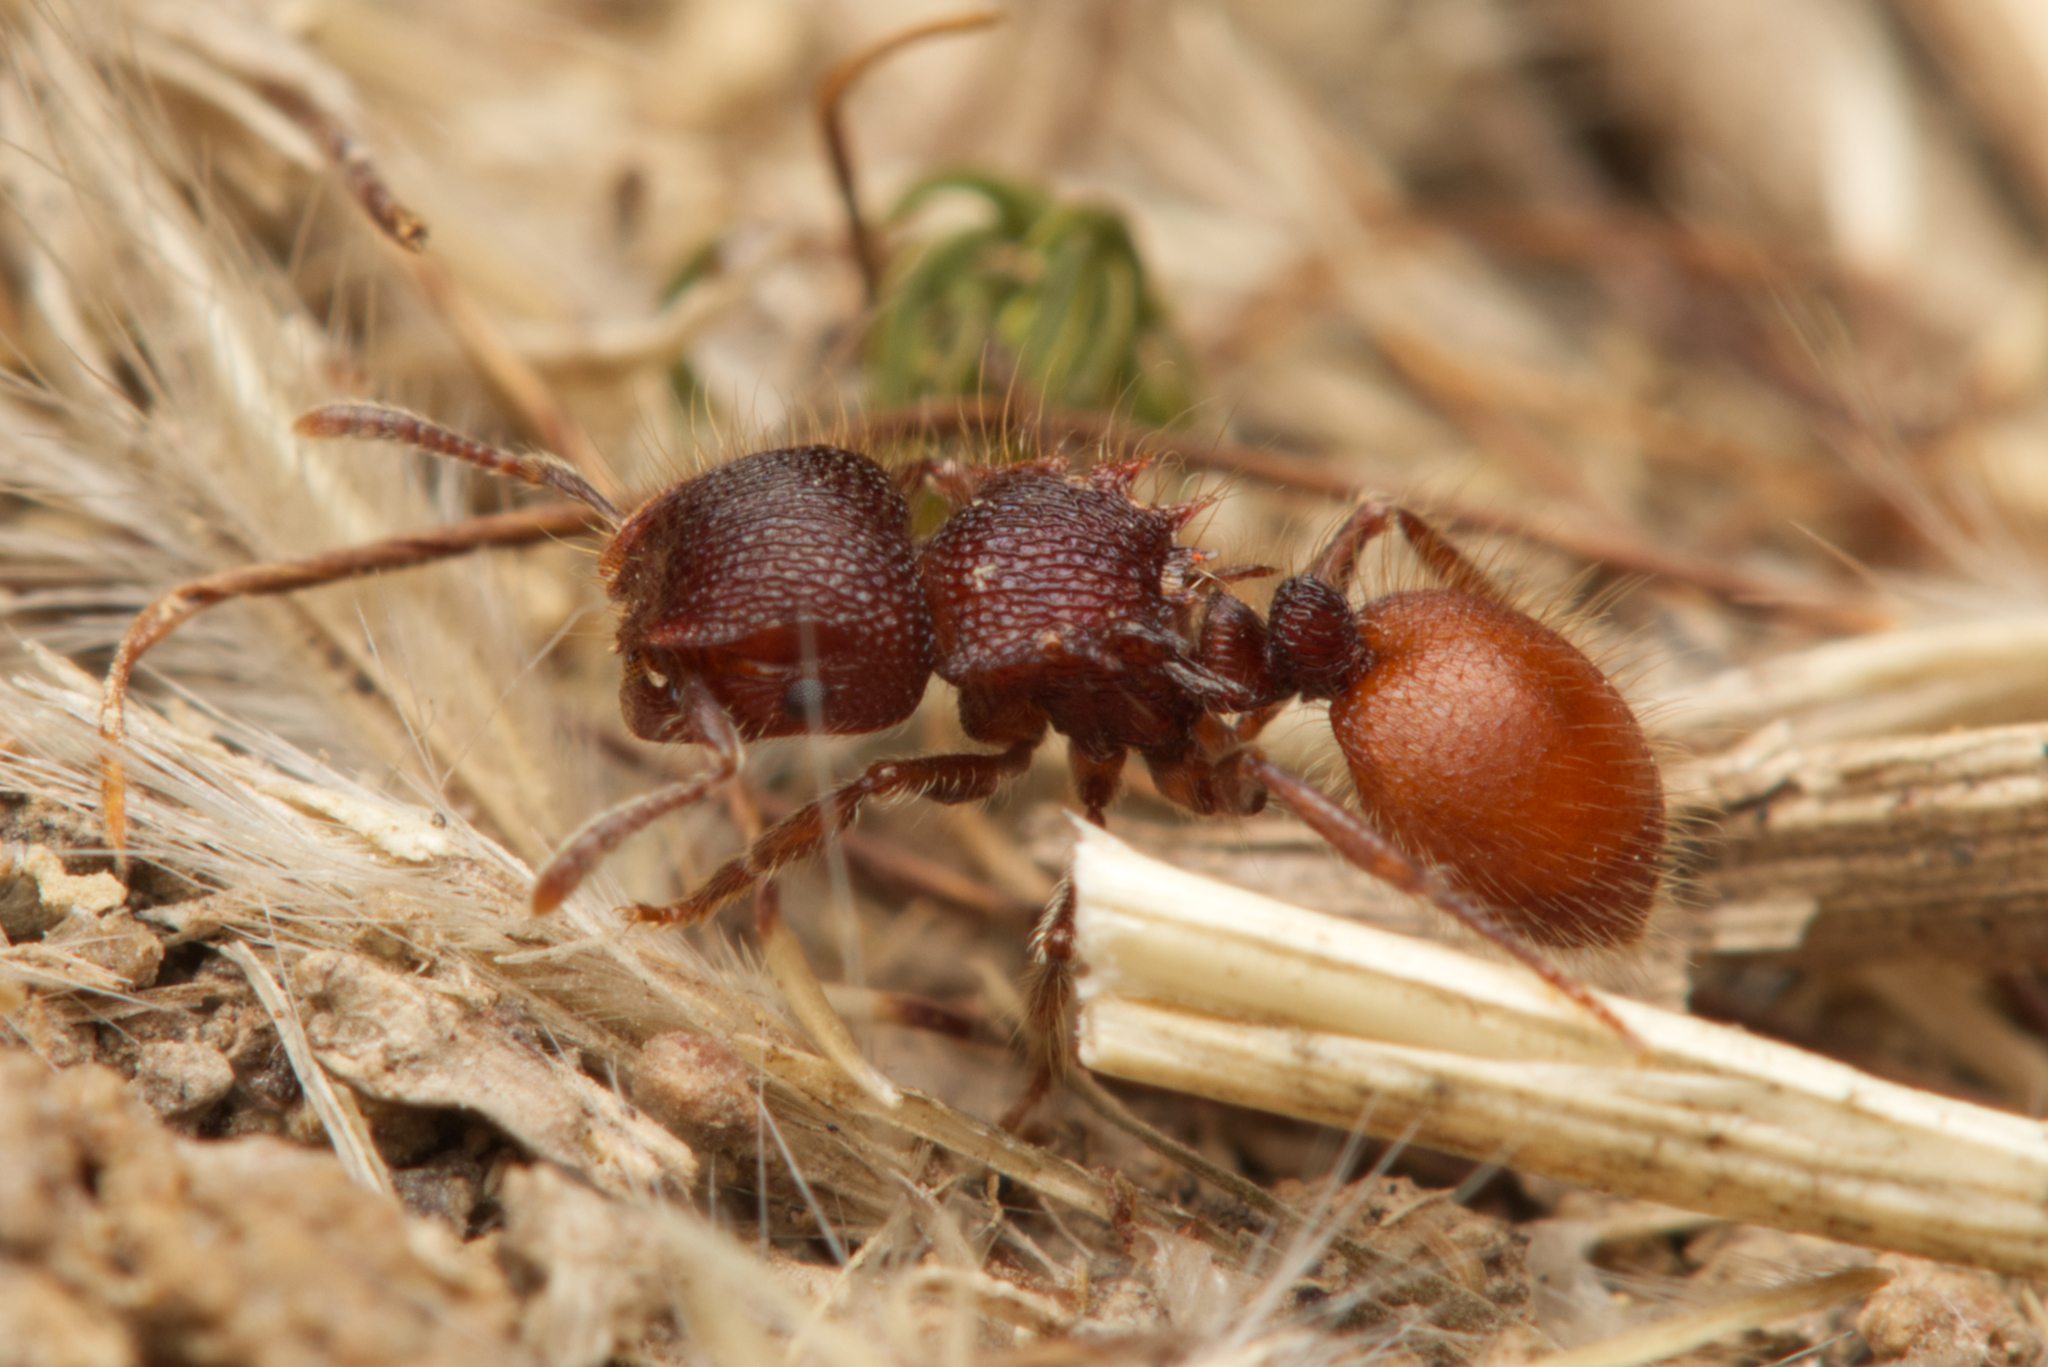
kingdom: Animalia
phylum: Arthropoda
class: Insecta
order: Hymenoptera
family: Formicidae
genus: Meranoplus
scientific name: Meranoplus wilsoni
